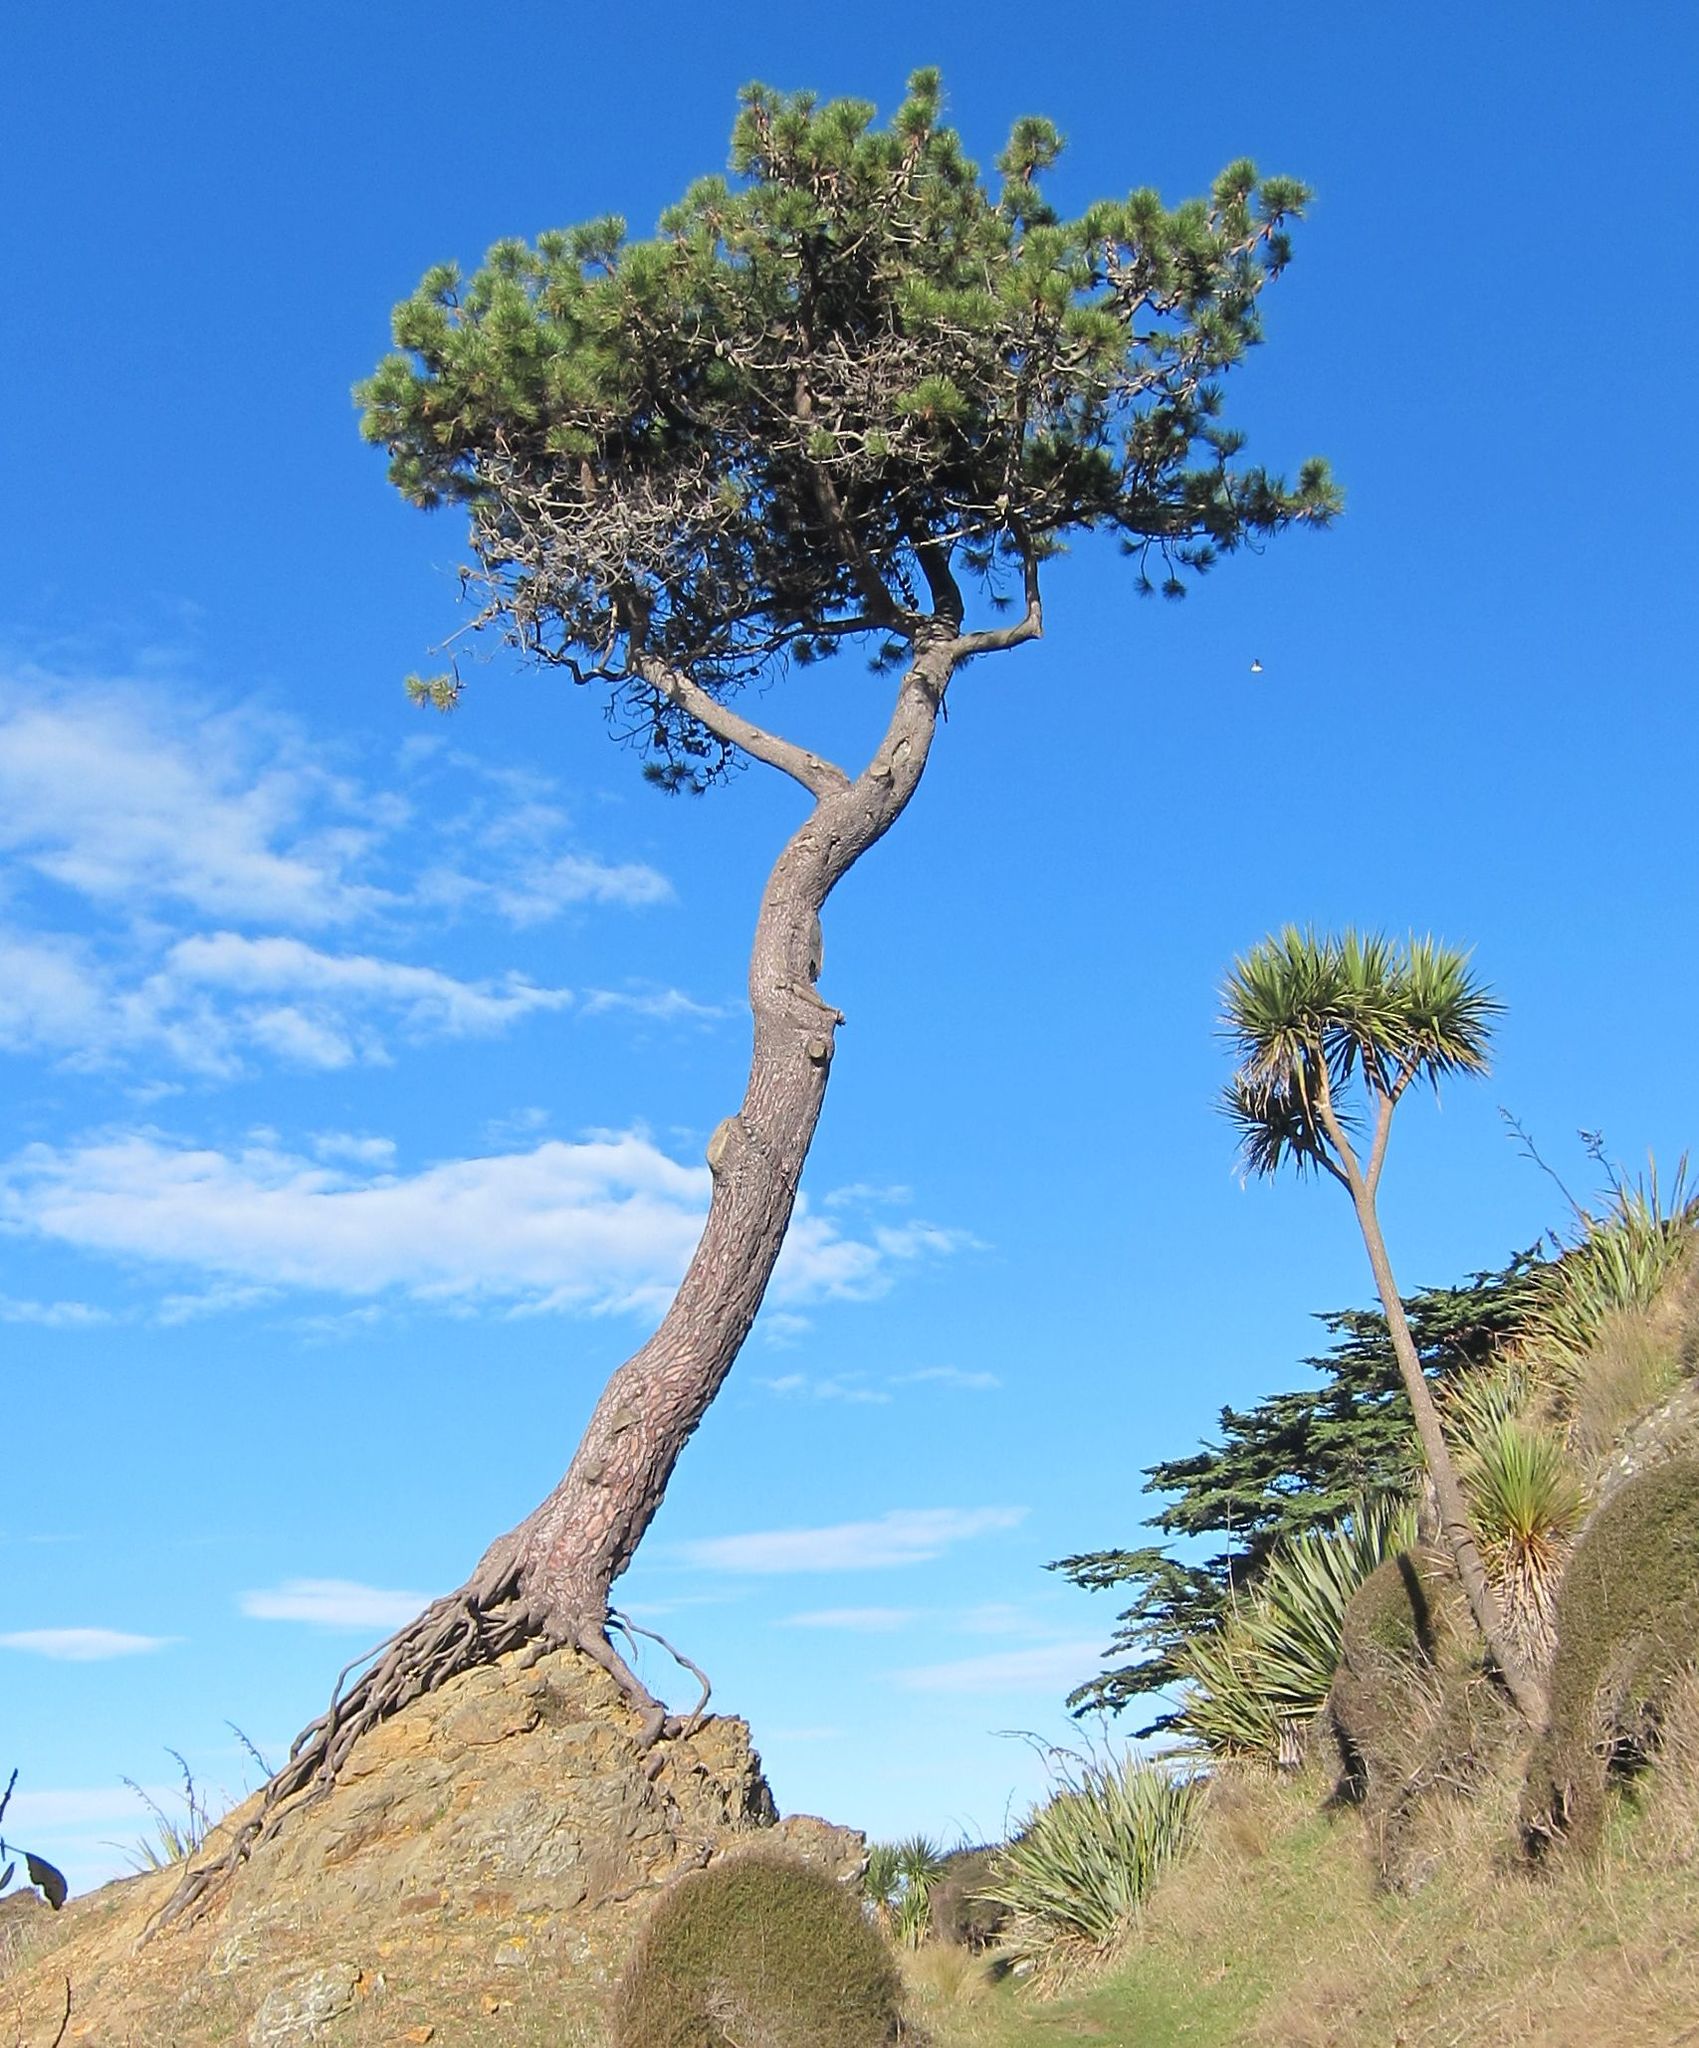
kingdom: Plantae
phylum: Tracheophyta
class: Pinopsida
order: Pinales
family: Pinaceae
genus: Pinus
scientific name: Pinus pinaster
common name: Maritime pine
